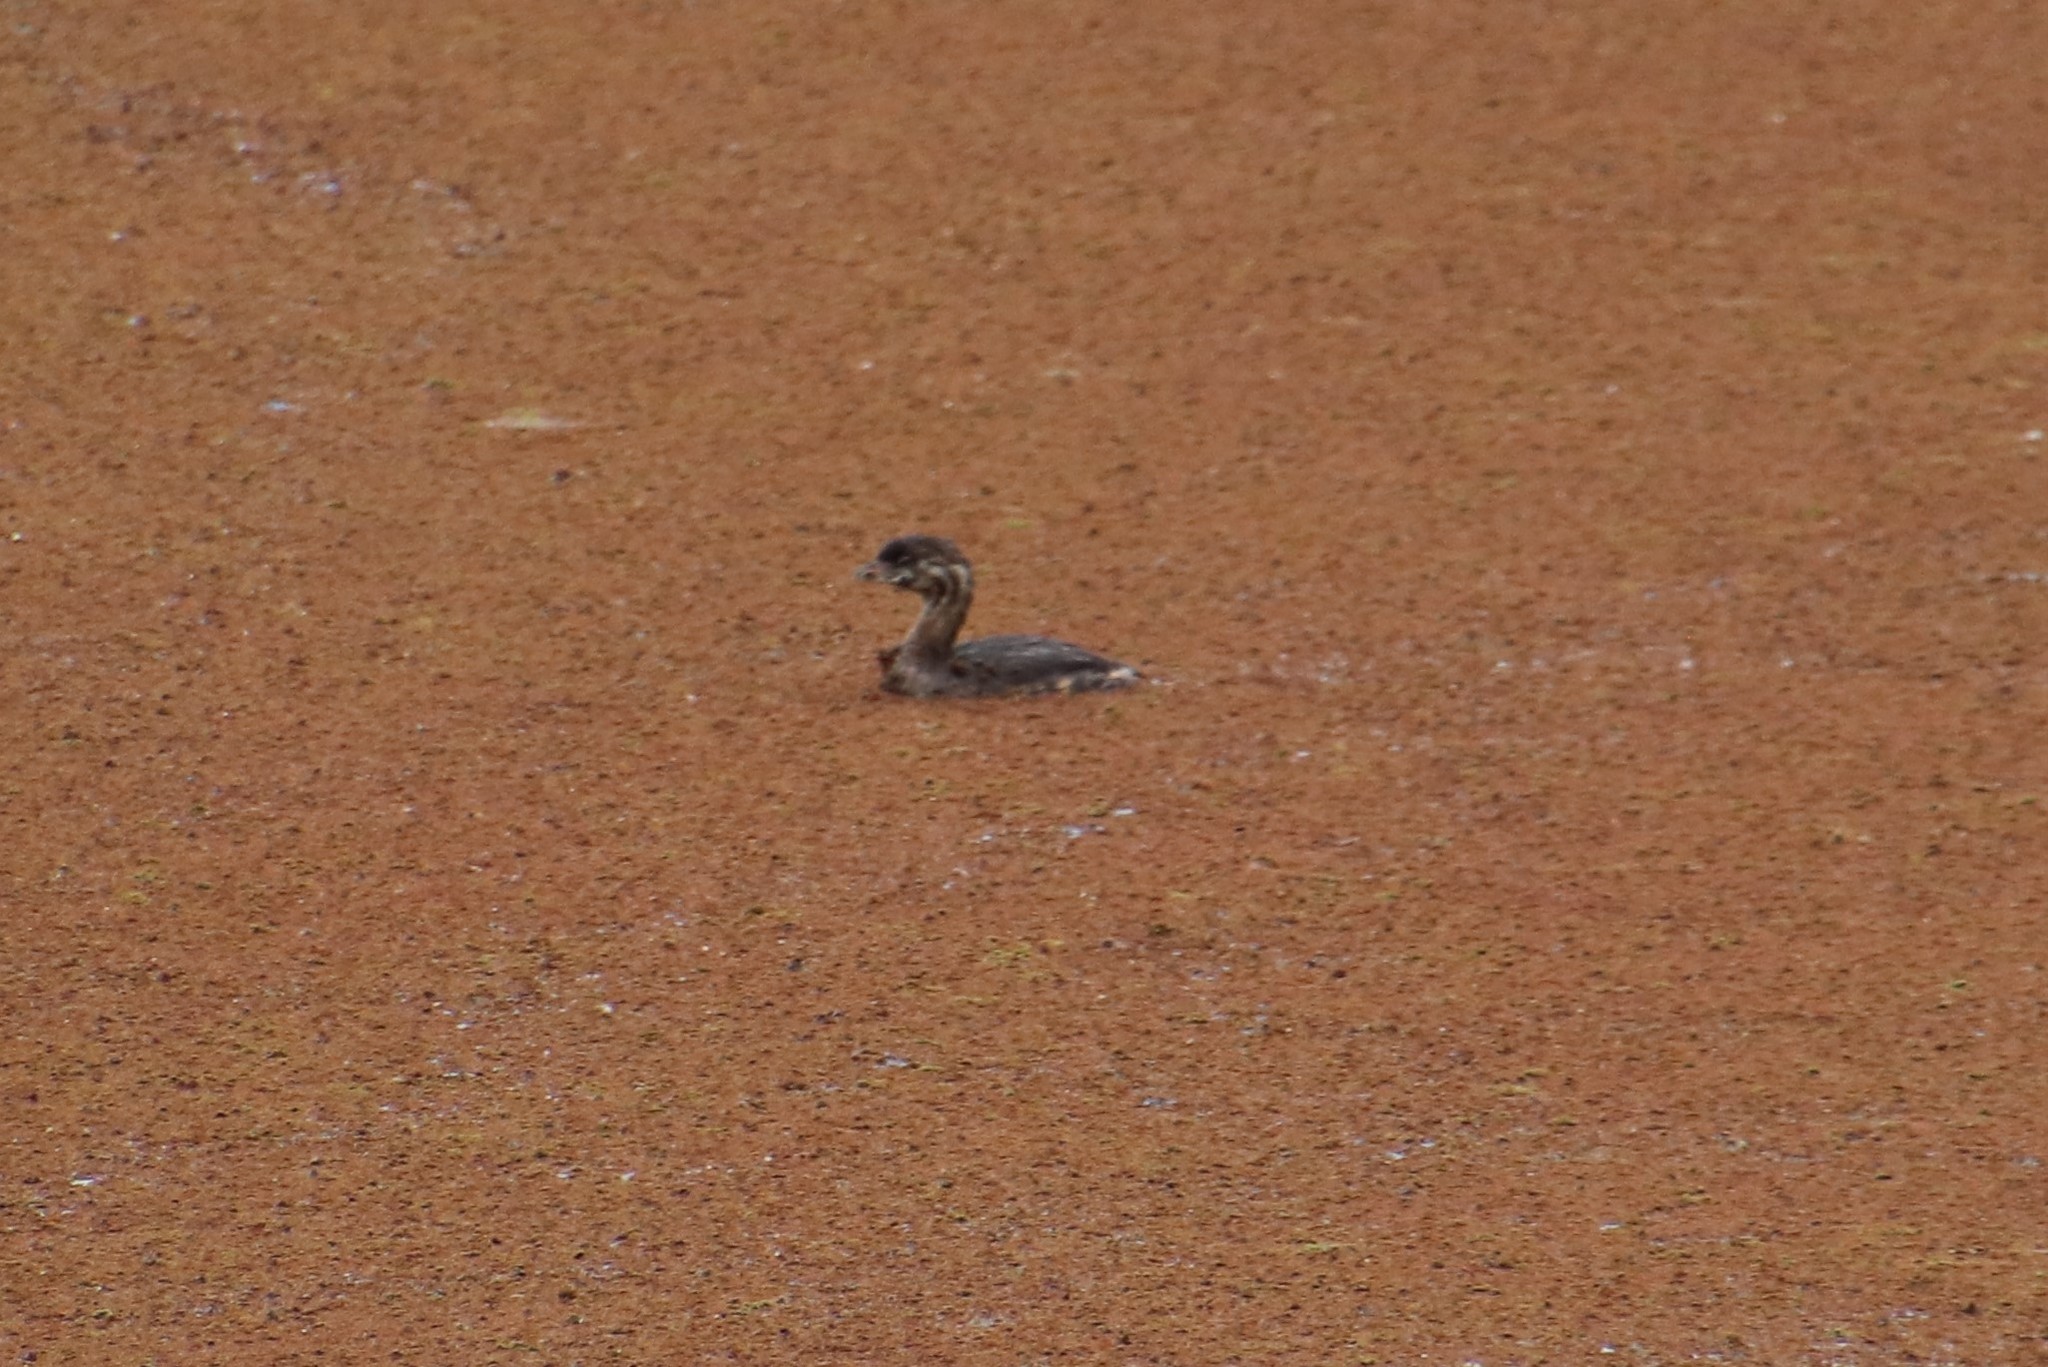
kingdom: Animalia
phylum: Chordata
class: Aves
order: Podicipediformes
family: Podicipedidae
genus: Podilymbus
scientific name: Podilymbus podiceps
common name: Pied-billed grebe
